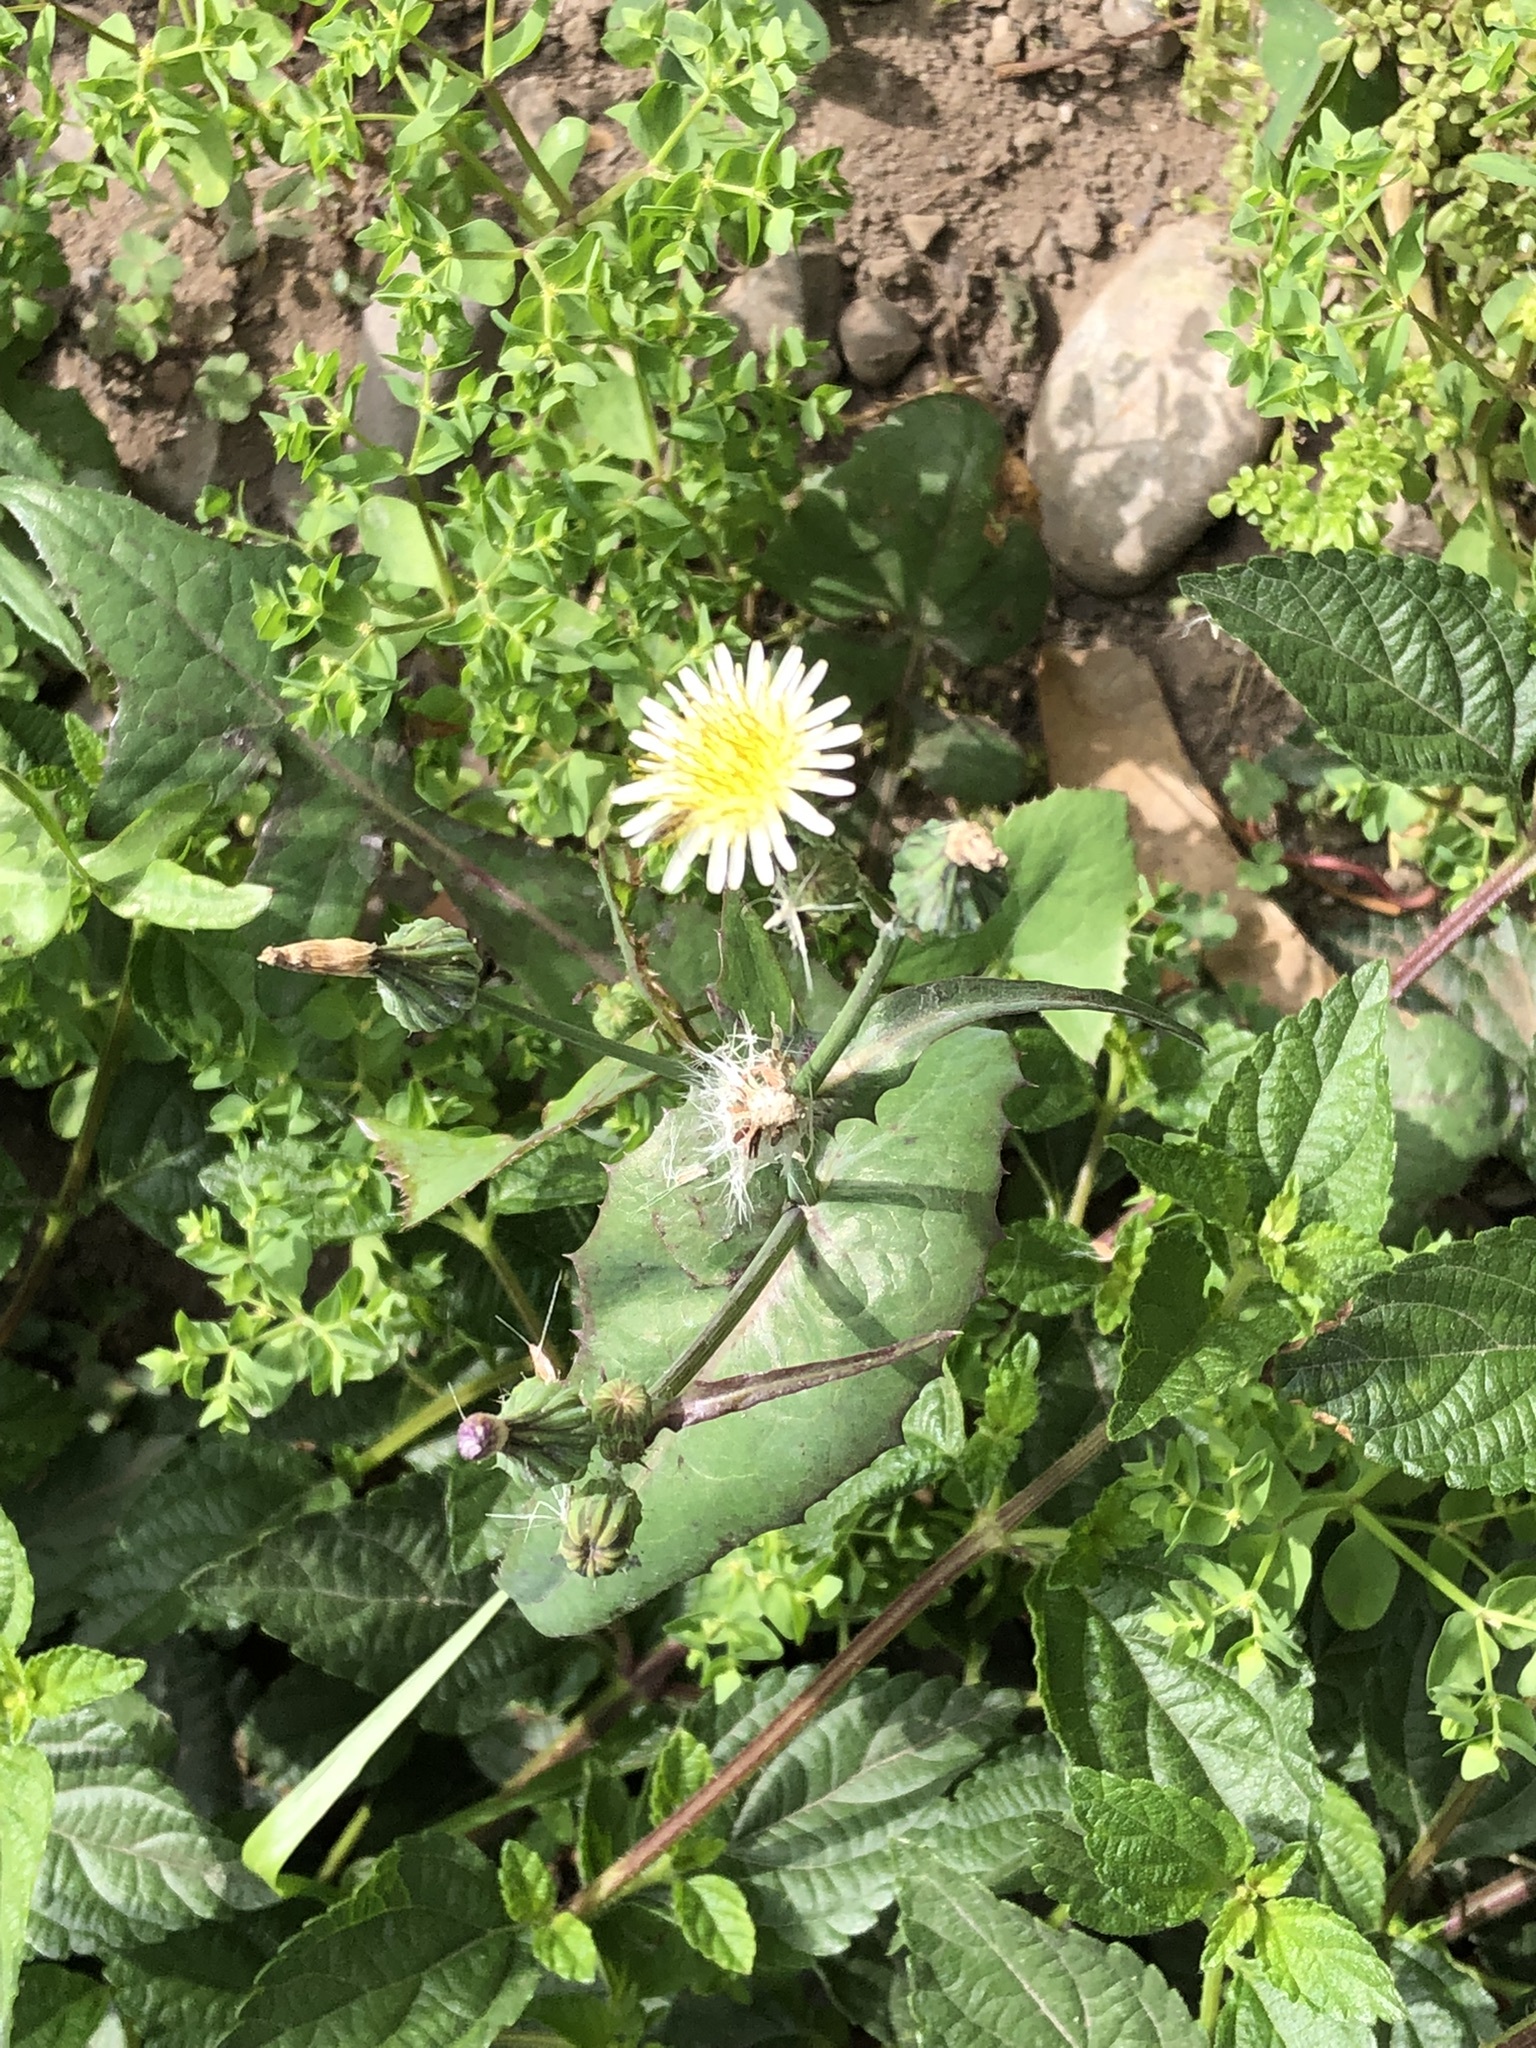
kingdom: Plantae
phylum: Tracheophyta
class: Magnoliopsida
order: Asterales
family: Asteraceae
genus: Sonchus
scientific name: Sonchus oleraceus
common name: Common sowthistle
